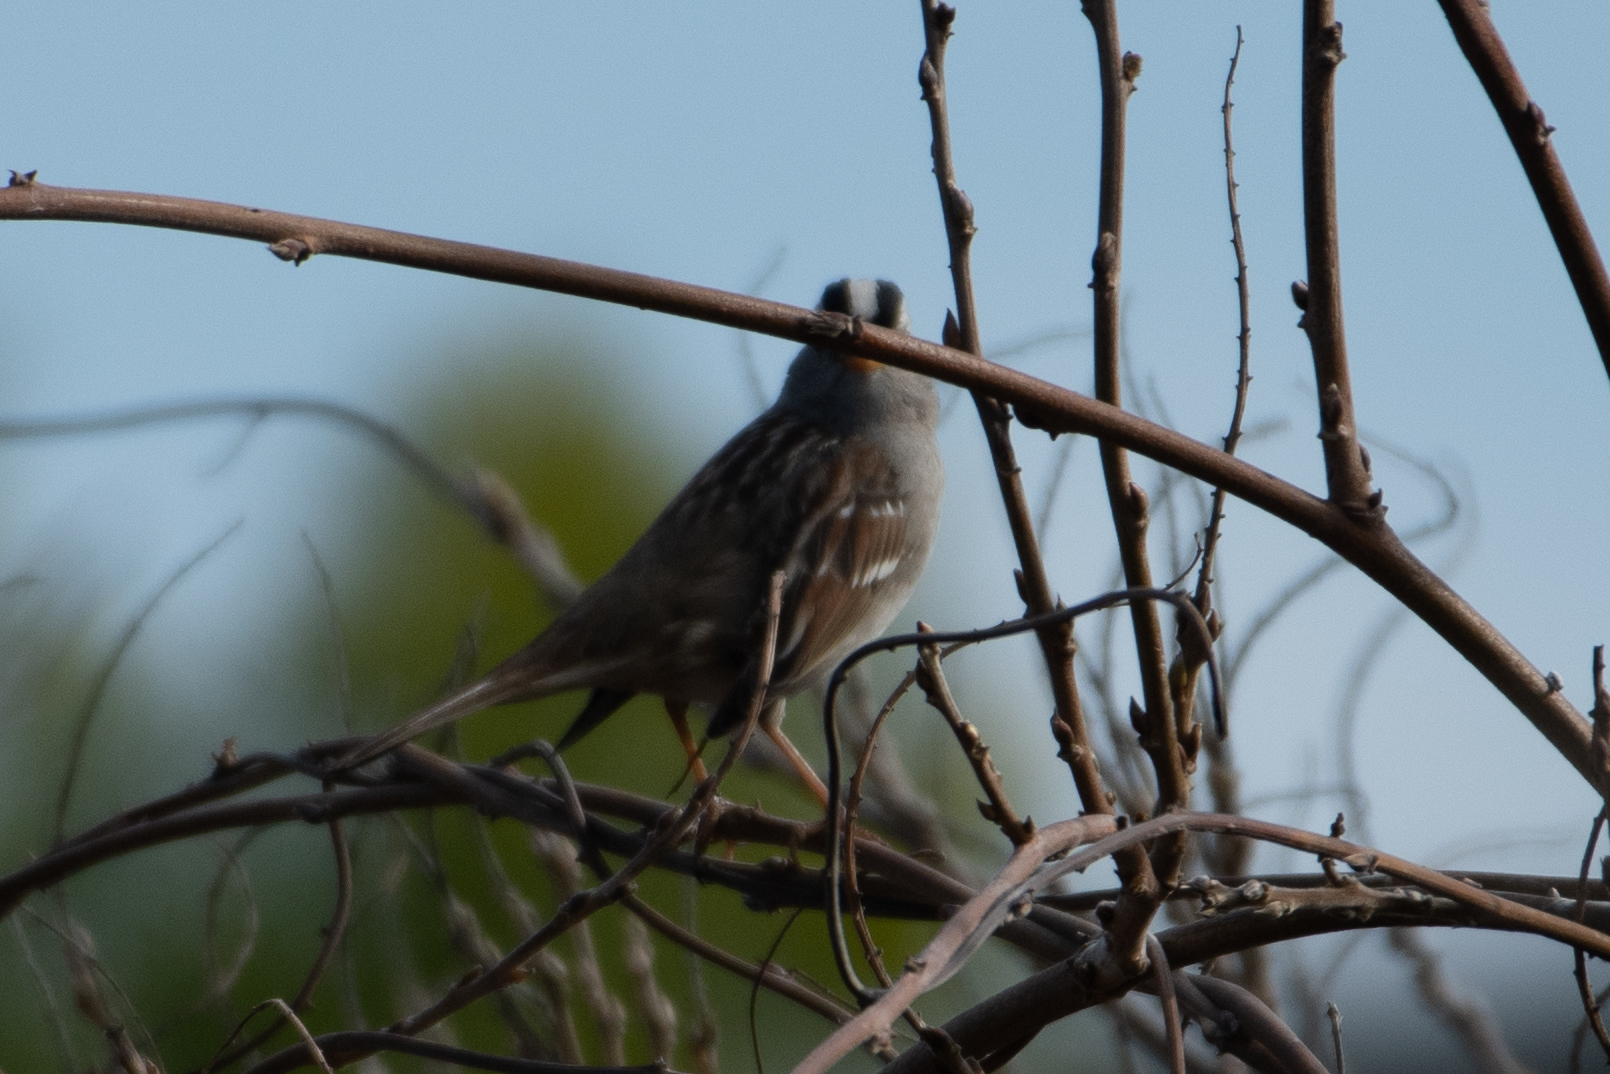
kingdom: Animalia
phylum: Chordata
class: Aves
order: Passeriformes
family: Passerellidae
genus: Zonotrichia
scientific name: Zonotrichia leucophrys
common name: White-crowned sparrow
